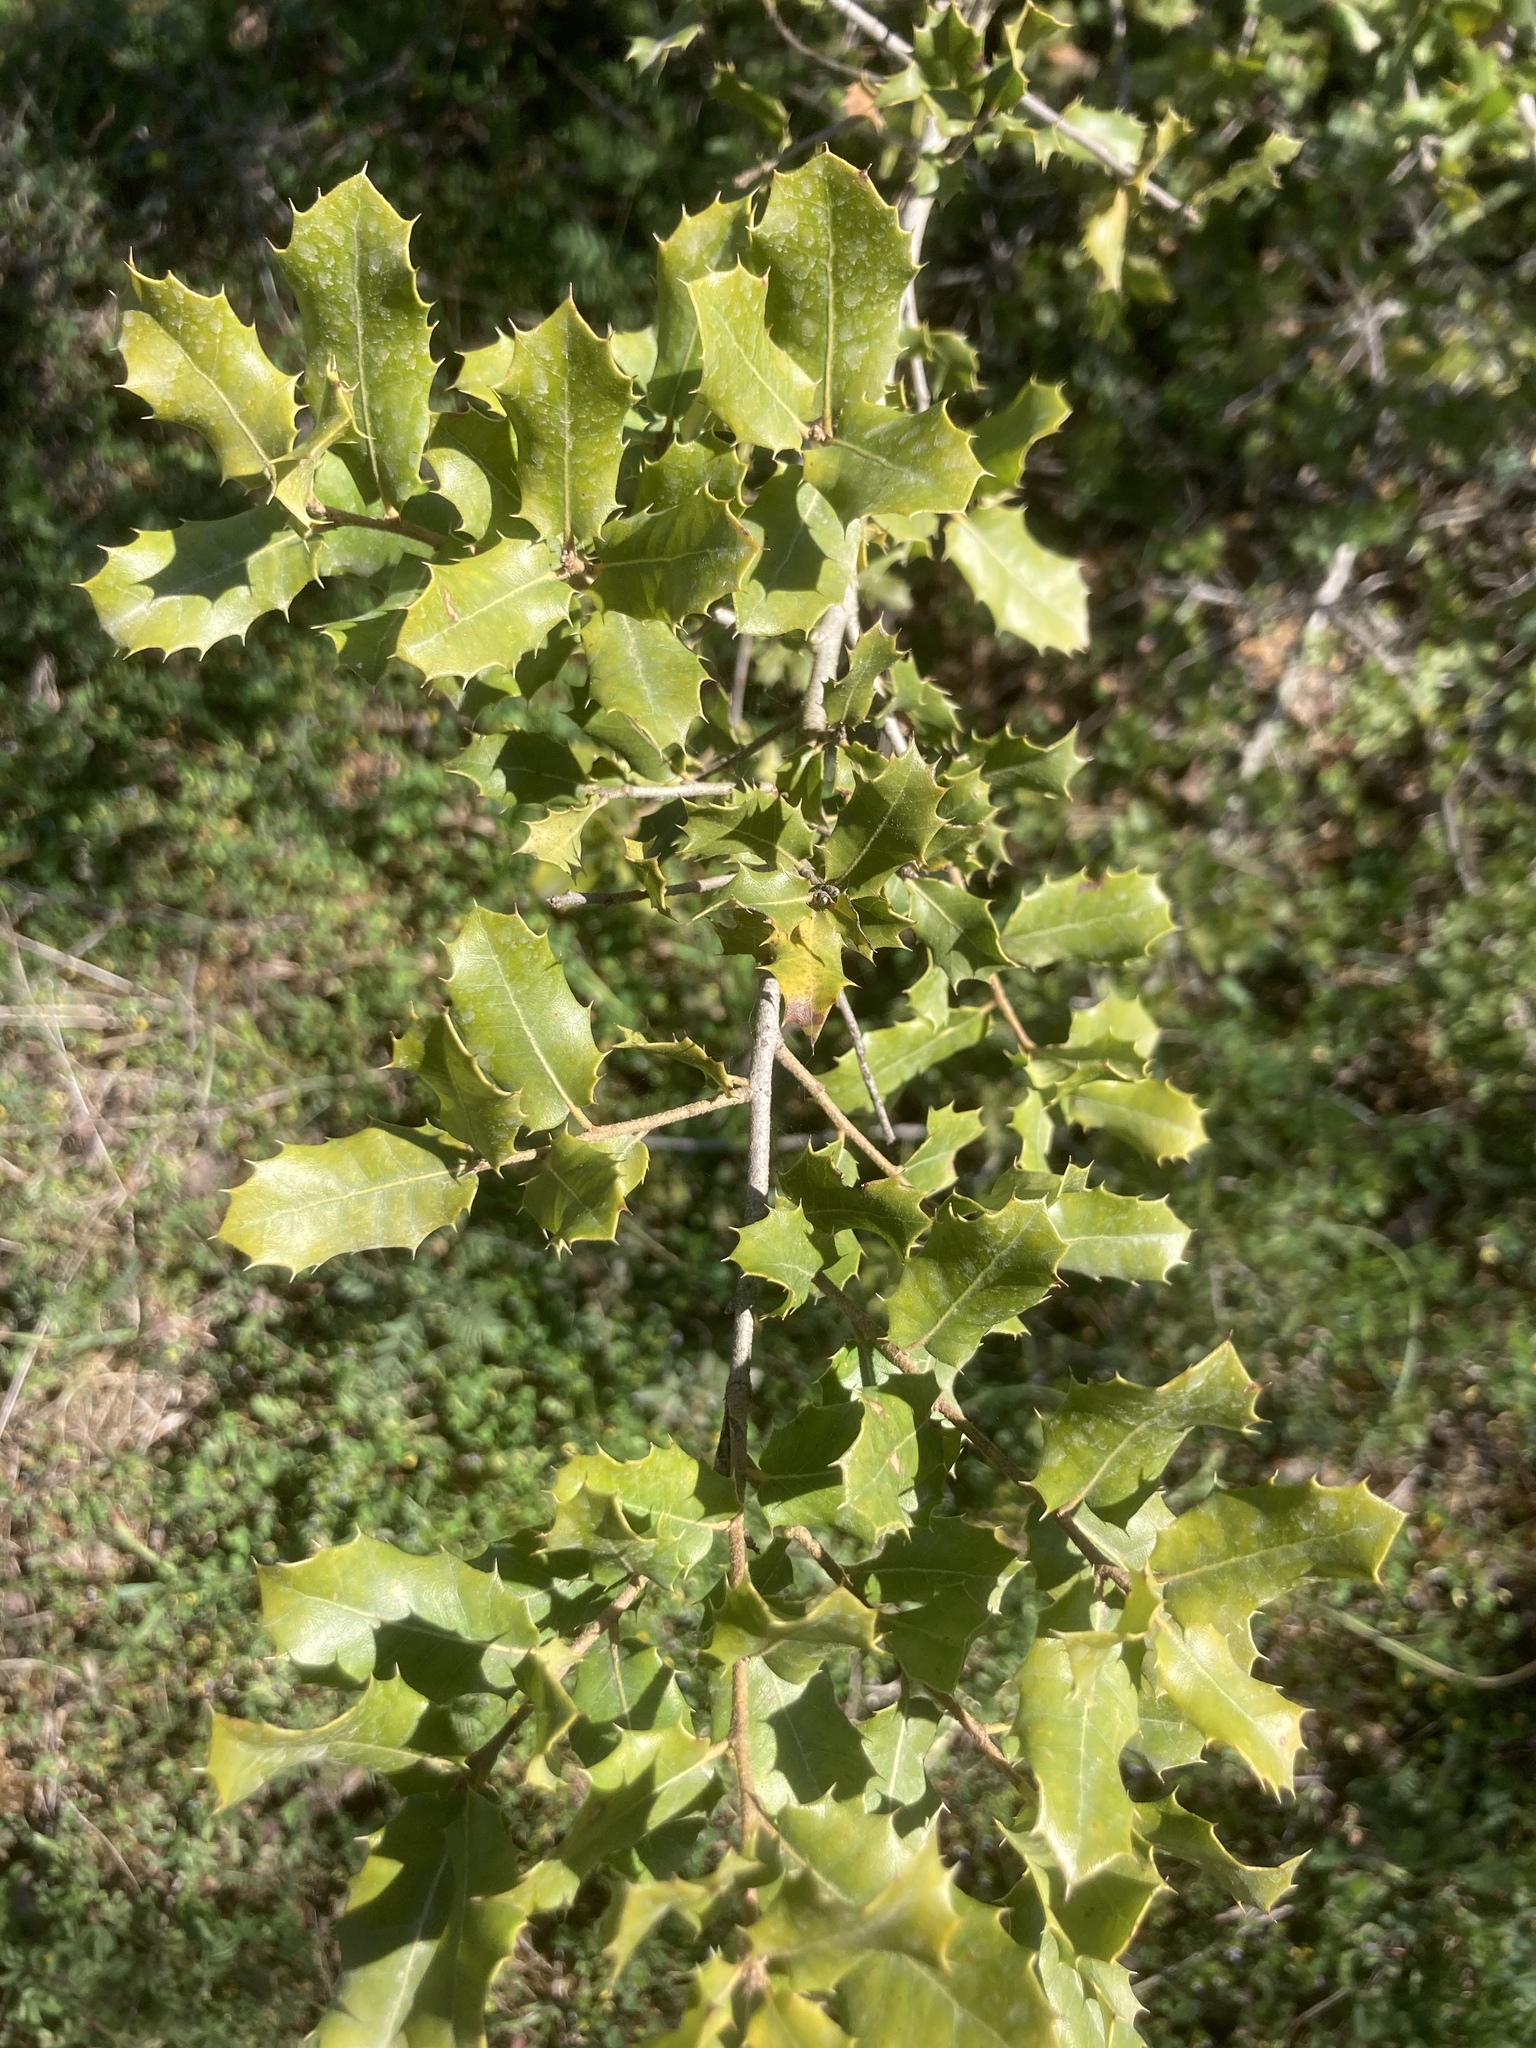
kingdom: Plantae
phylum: Tracheophyta
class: Magnoliopsida
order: Fagales
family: Fagaceae
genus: Quercus
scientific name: Quercus coccifera
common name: Kermes oak
